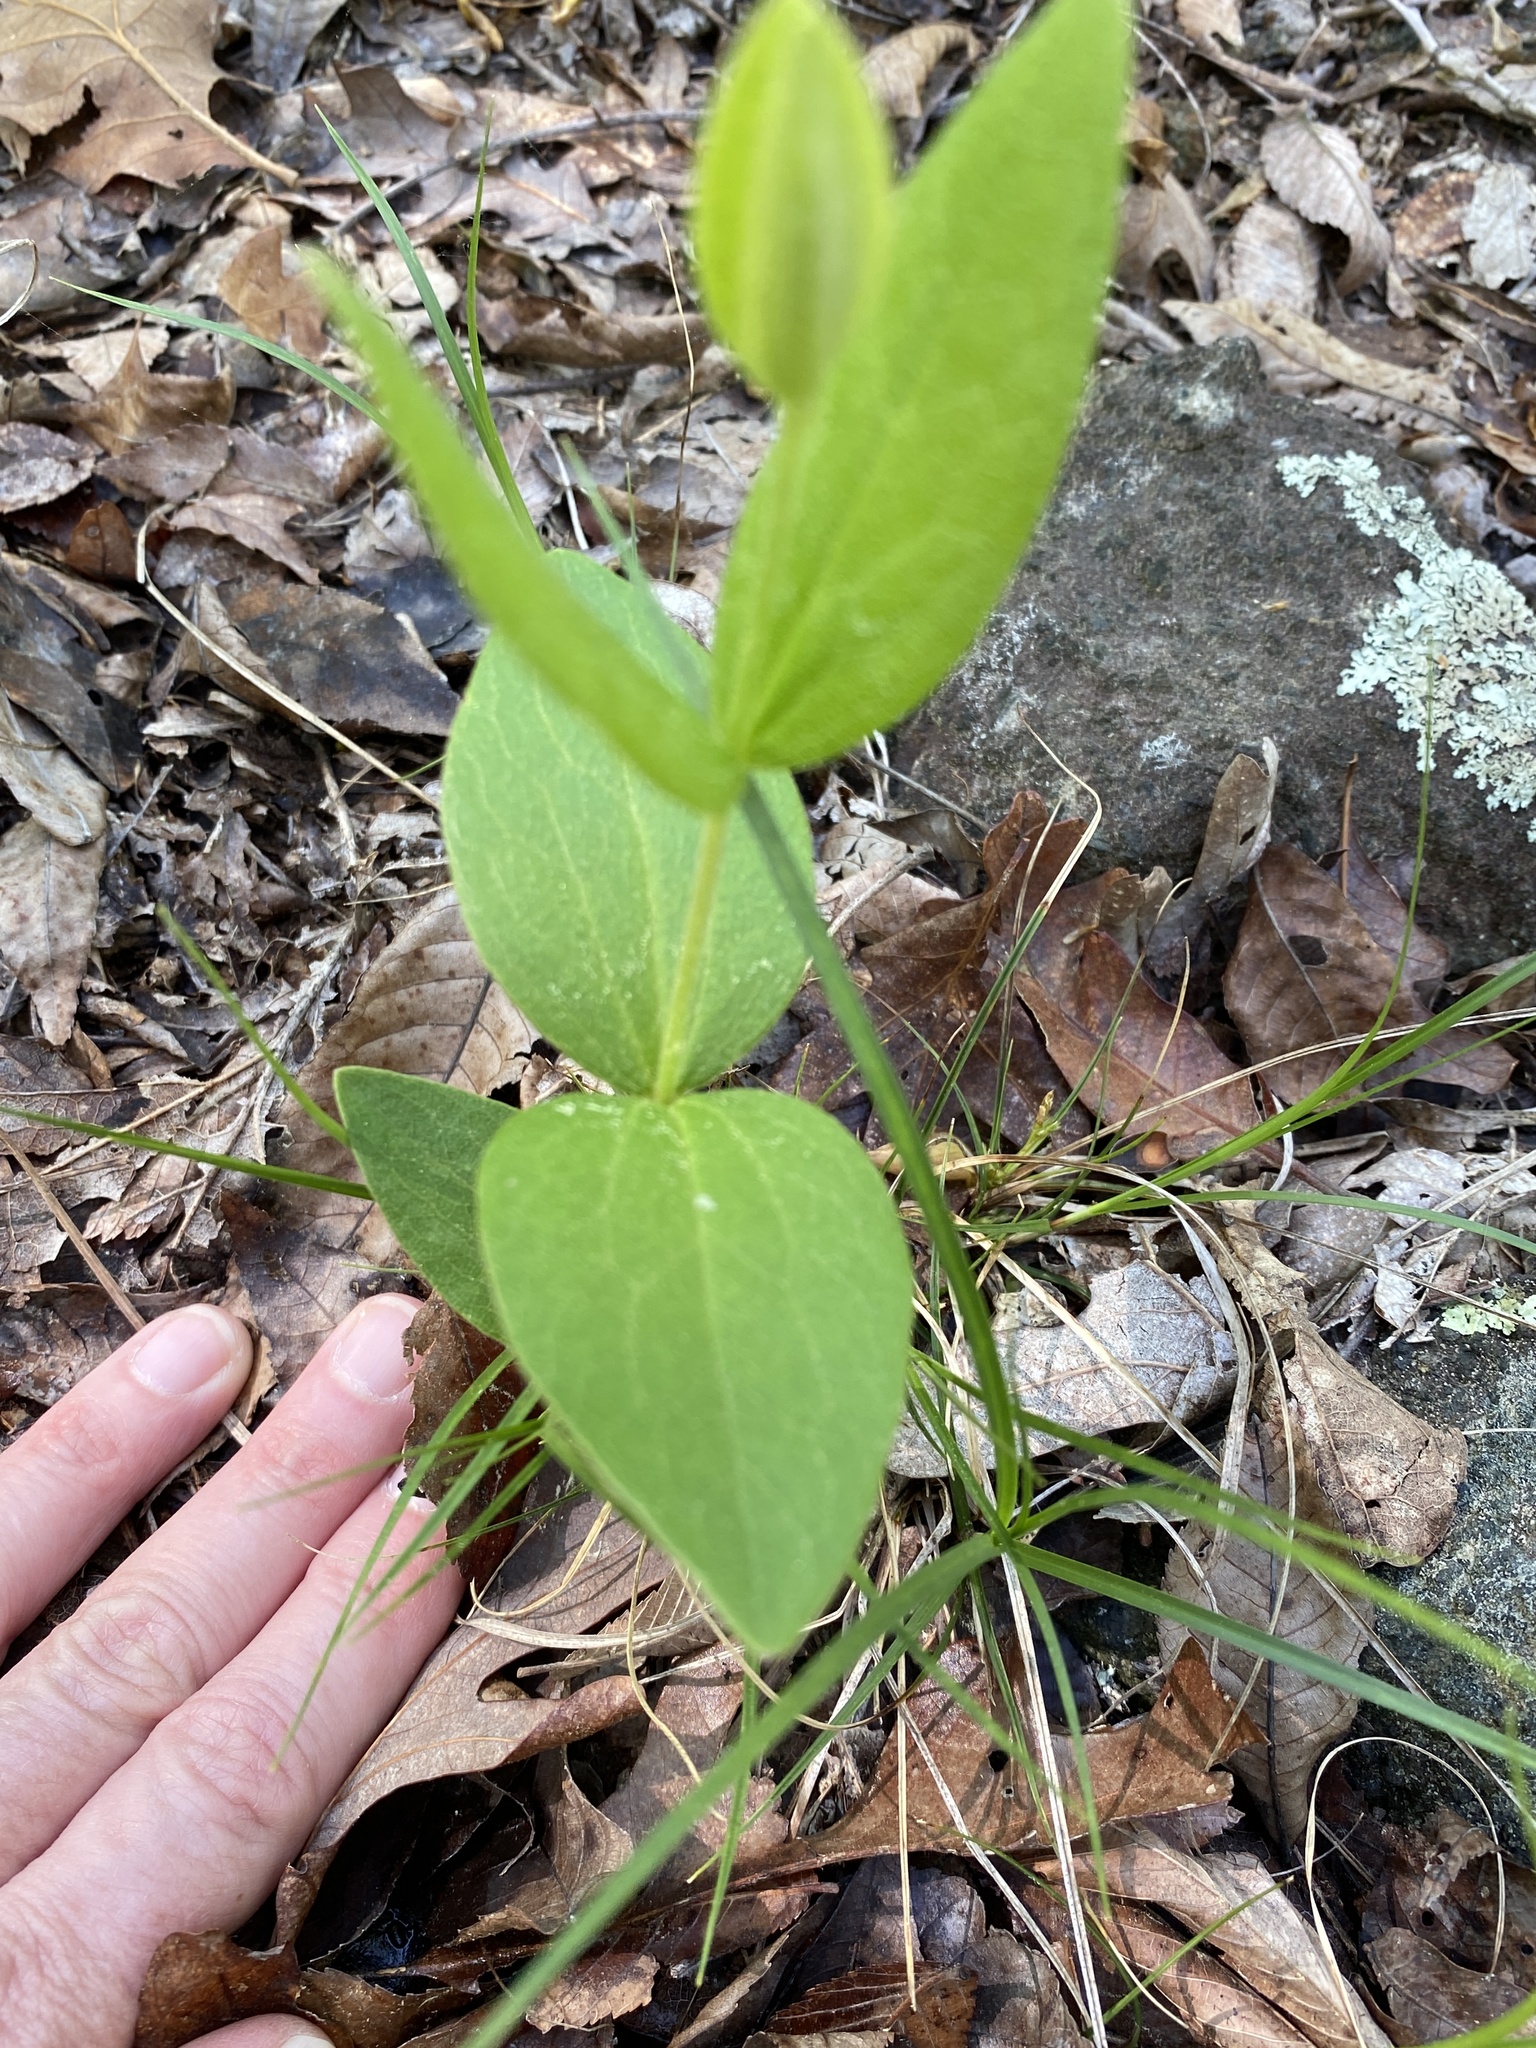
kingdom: Plantae
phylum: Tracheophyta
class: Magnoliopsida
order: Ranunculales
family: Ranunculaceae
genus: Clematis
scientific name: Clematis ochroleuca
